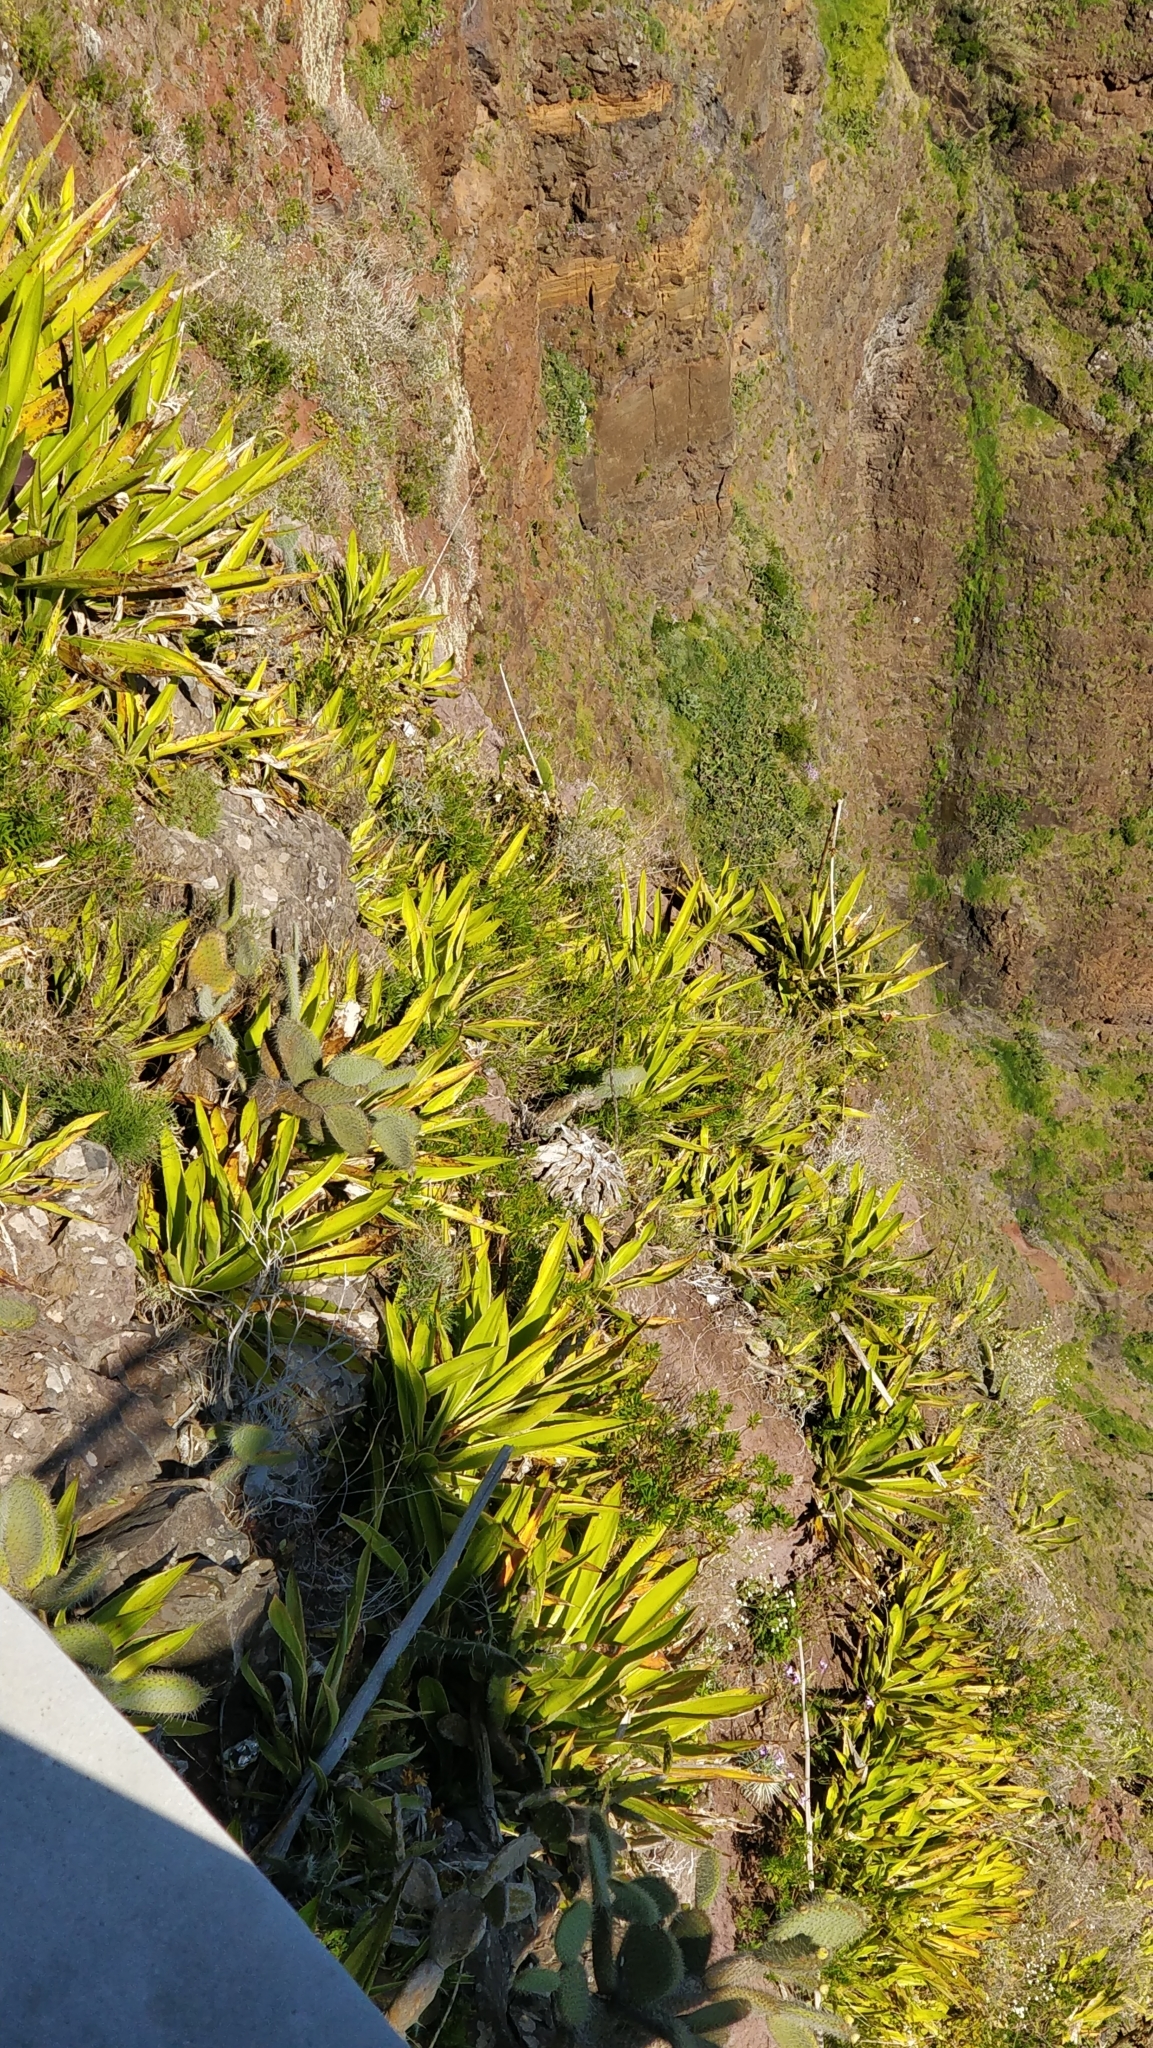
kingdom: Plantae
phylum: Tracheophyta
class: Liliopsida
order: Asparagales
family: Asparagaceae
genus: Furcraea
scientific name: Furcraea foetida
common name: Mauritius hemp
